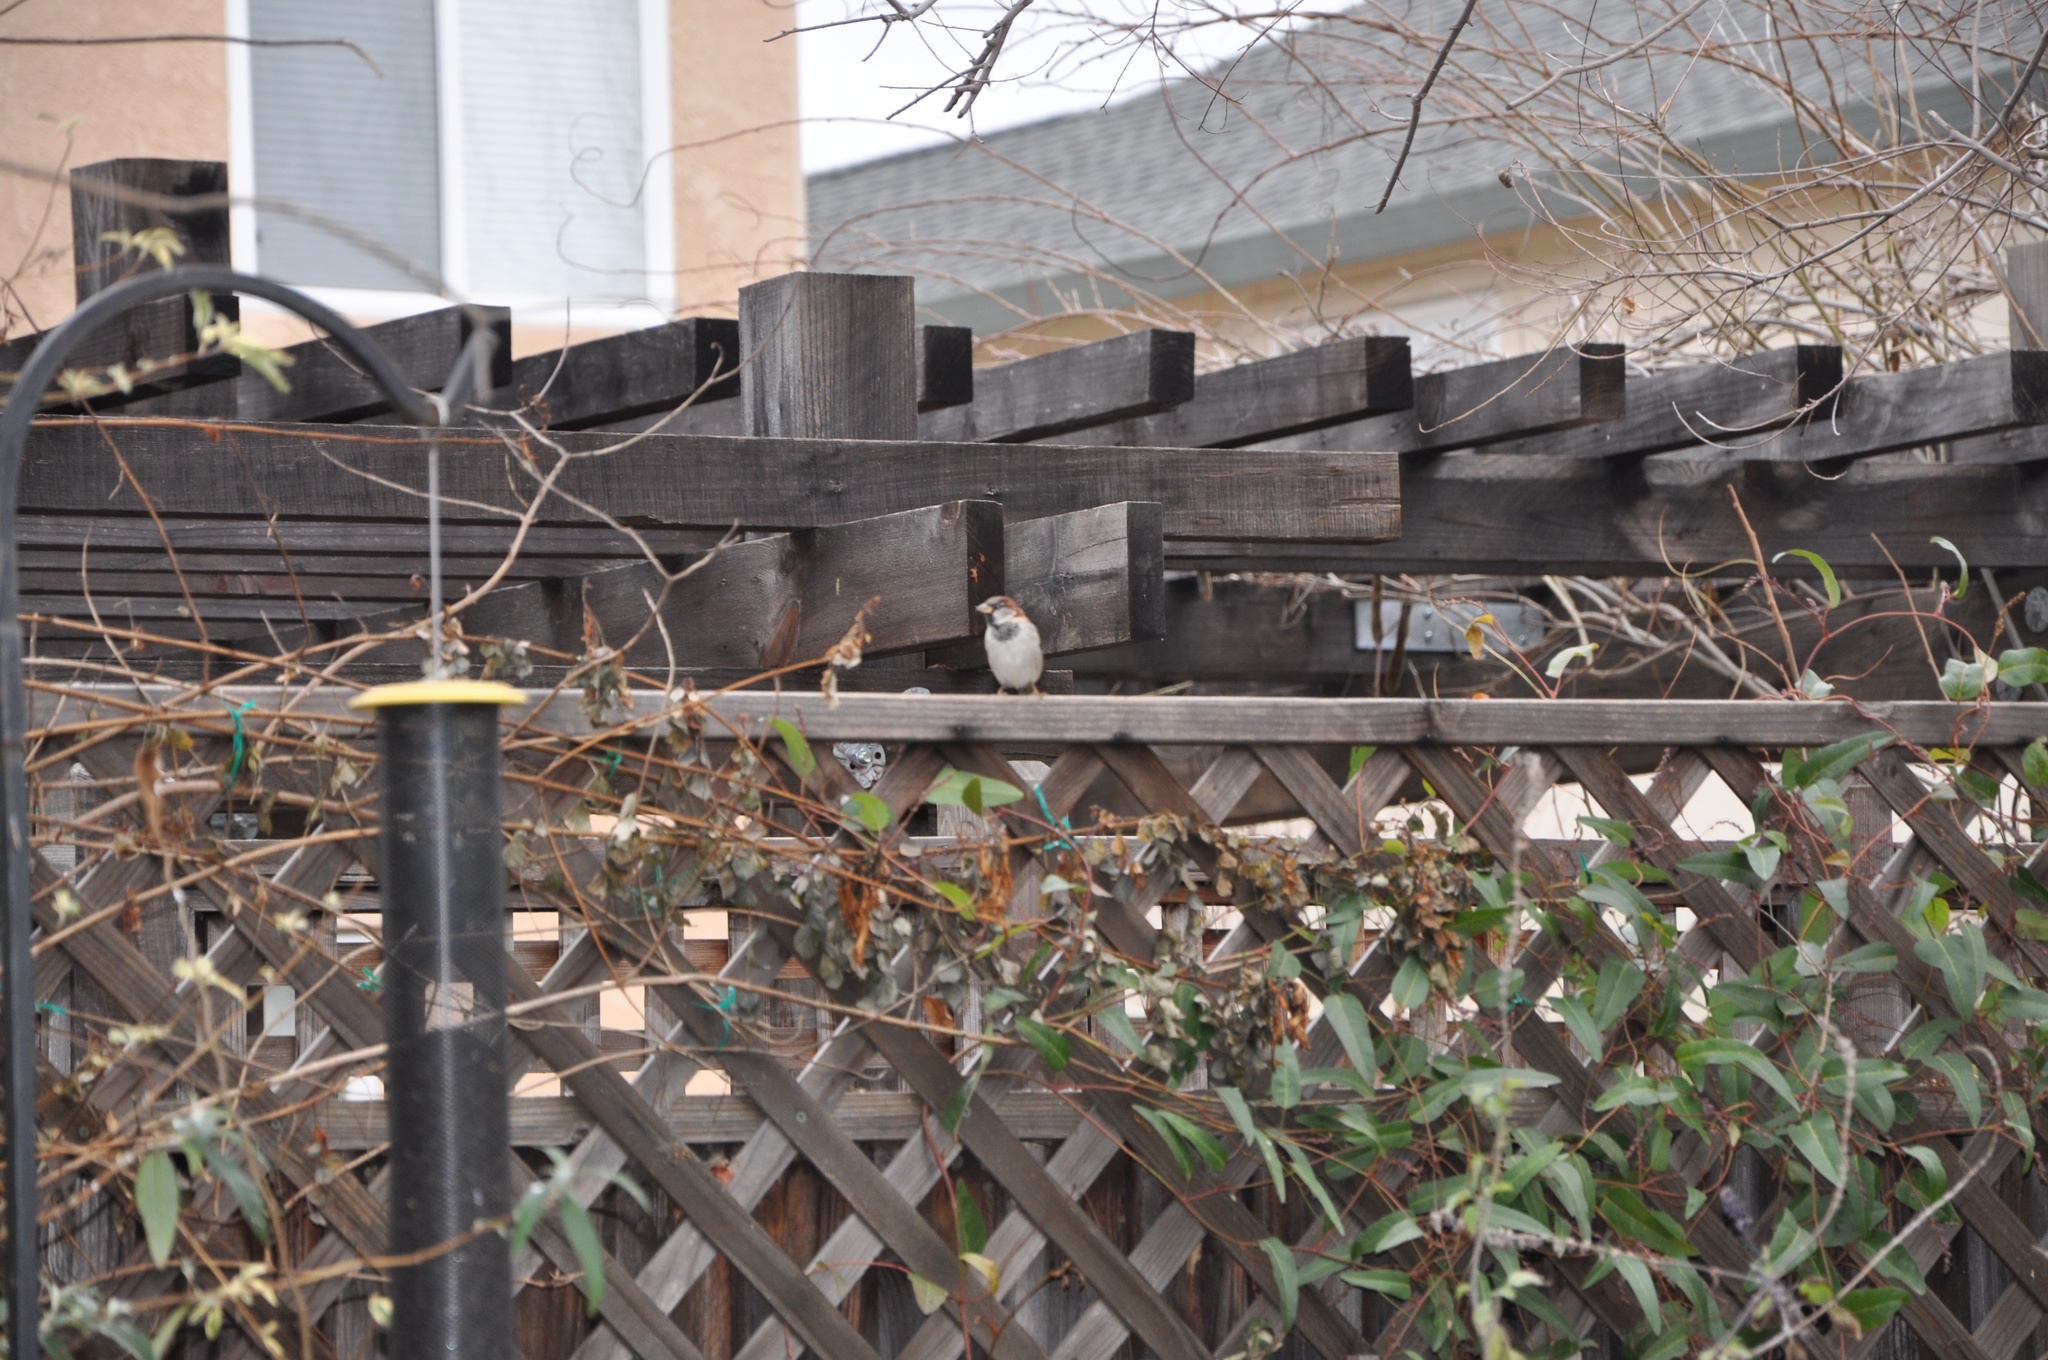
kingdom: Animalia
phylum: Chordata
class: Aves
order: Passeriformes
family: Passeridae
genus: Passer
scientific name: Passer domesticus
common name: House sparrow
